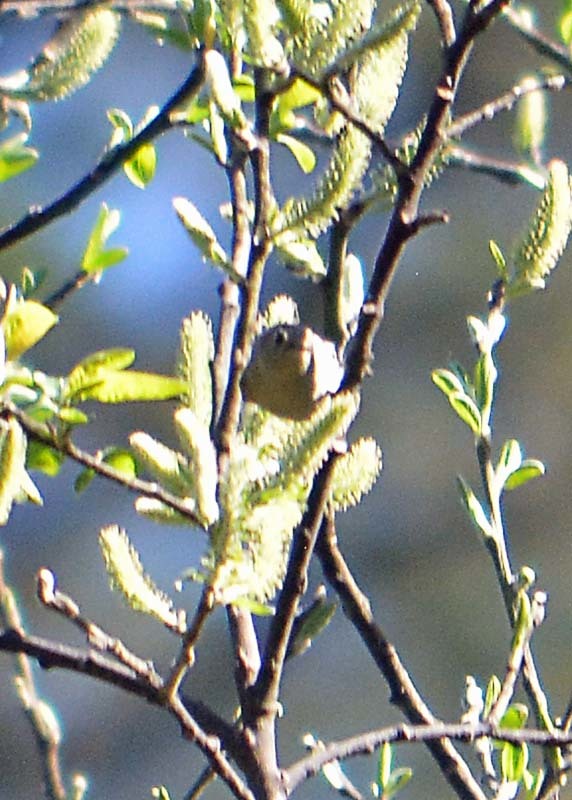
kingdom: Animalia
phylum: Chordata
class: Aves
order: Passeriformes
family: Parulidae
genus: Leiothlypis
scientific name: Leiothlypis ruficapilla
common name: Nashville warbler
